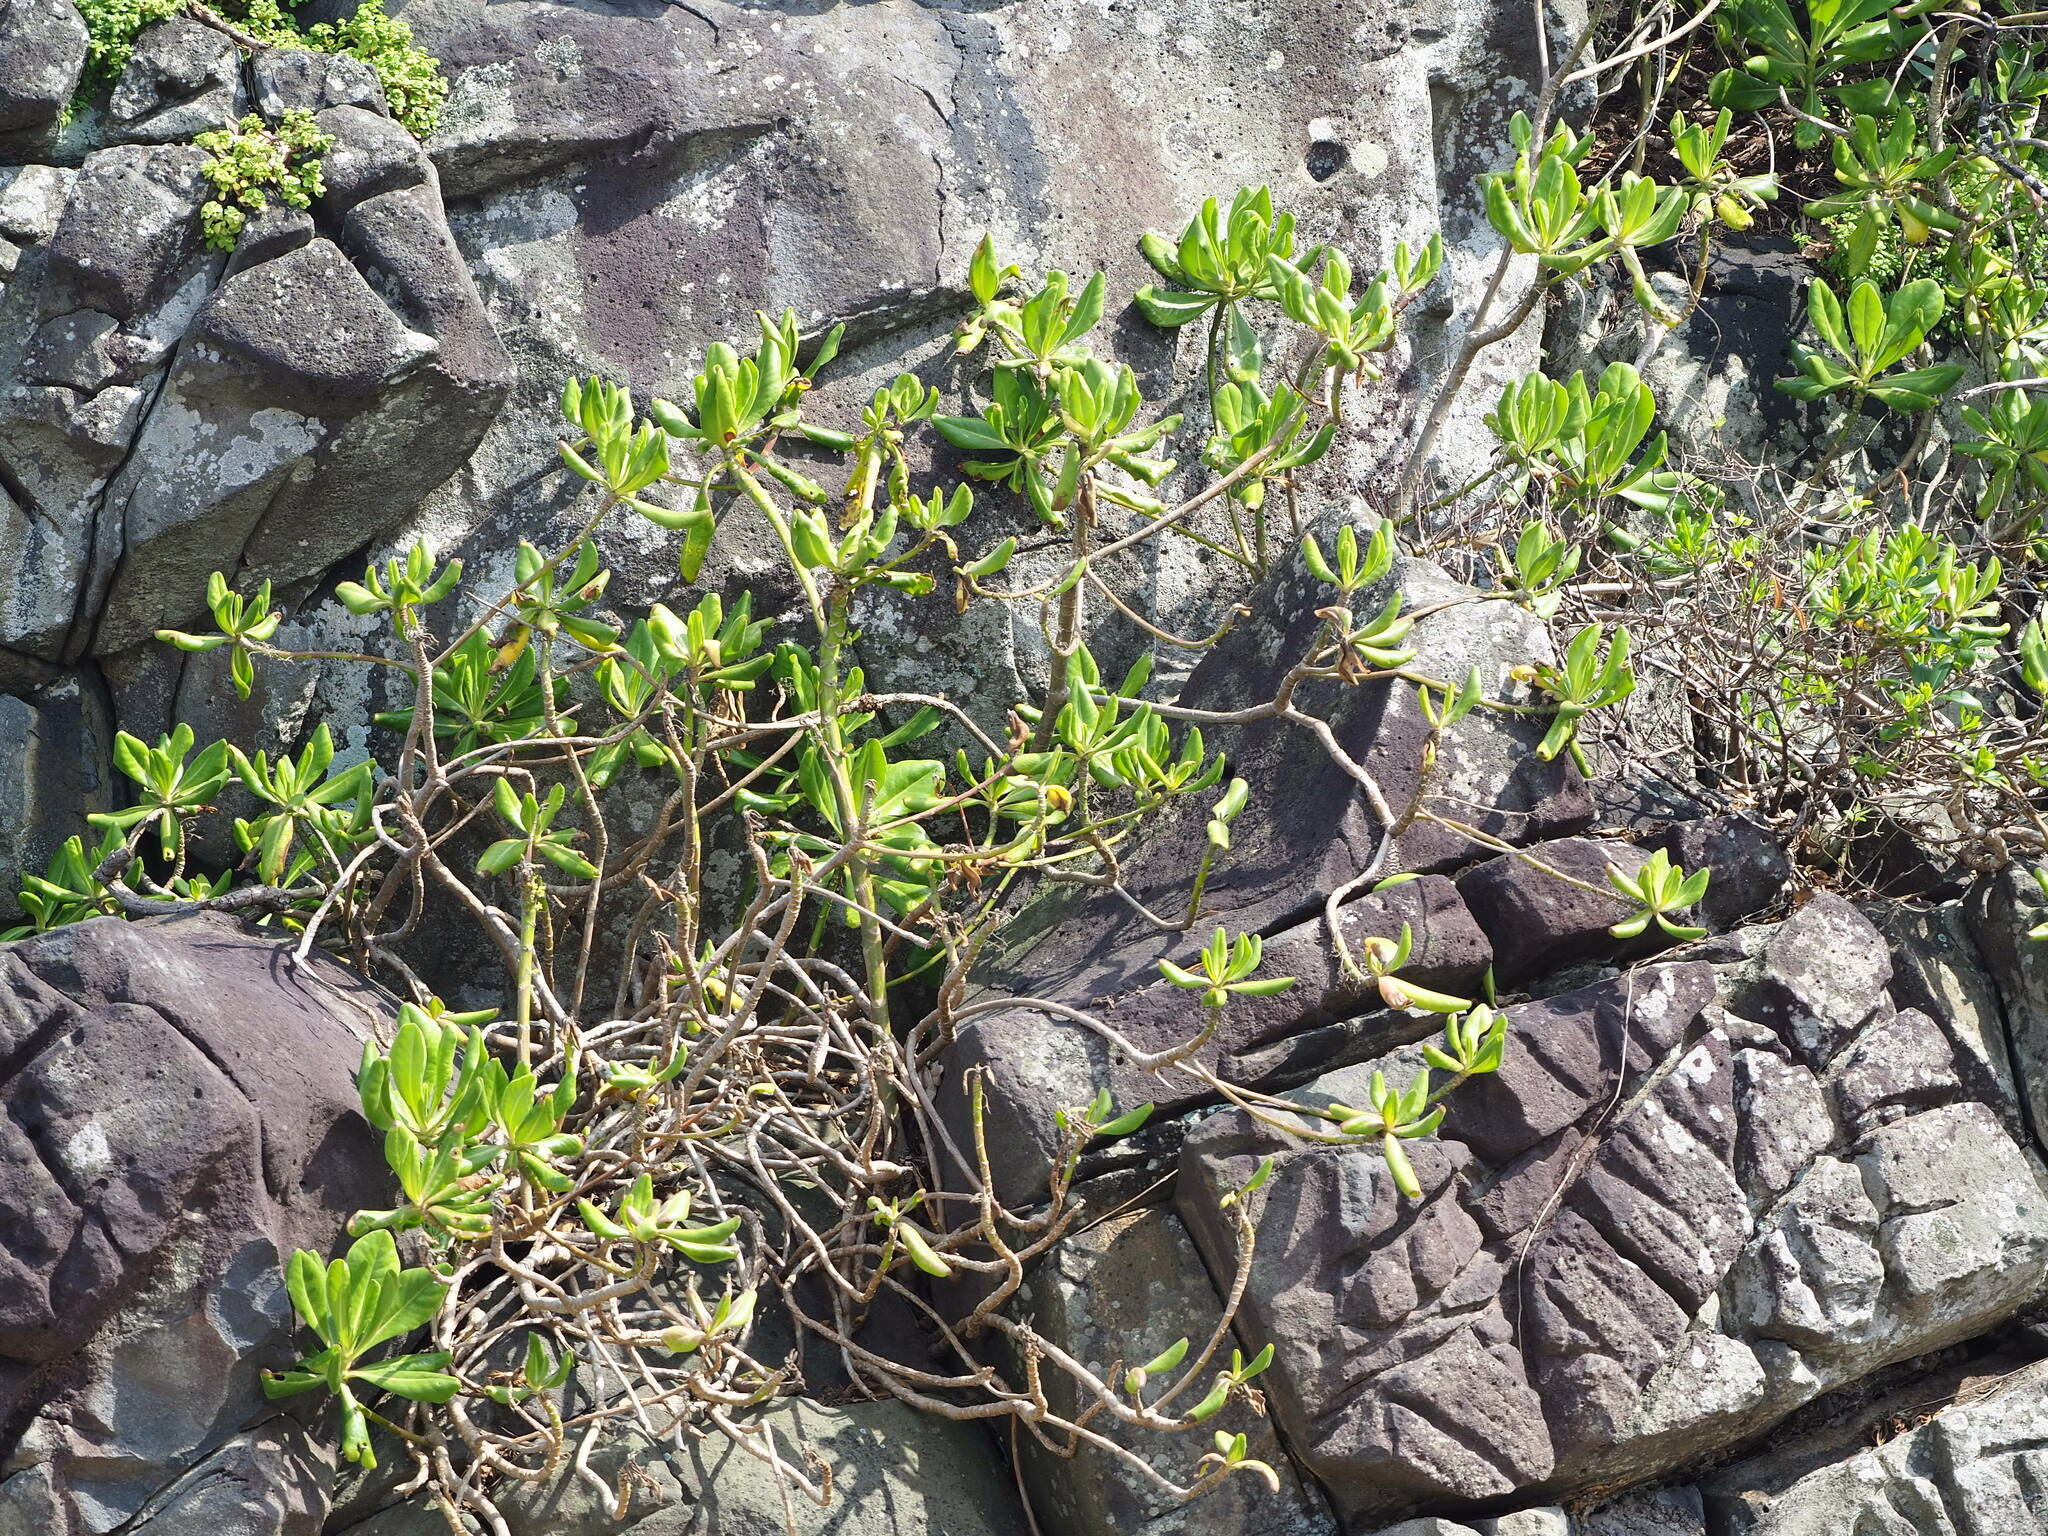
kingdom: Plantae
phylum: Tracheophyta
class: Magnoliopsida
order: Asterales
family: Goodeniaceae
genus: Scaevola
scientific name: Scaevola taccada
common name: Sea lettucetree
